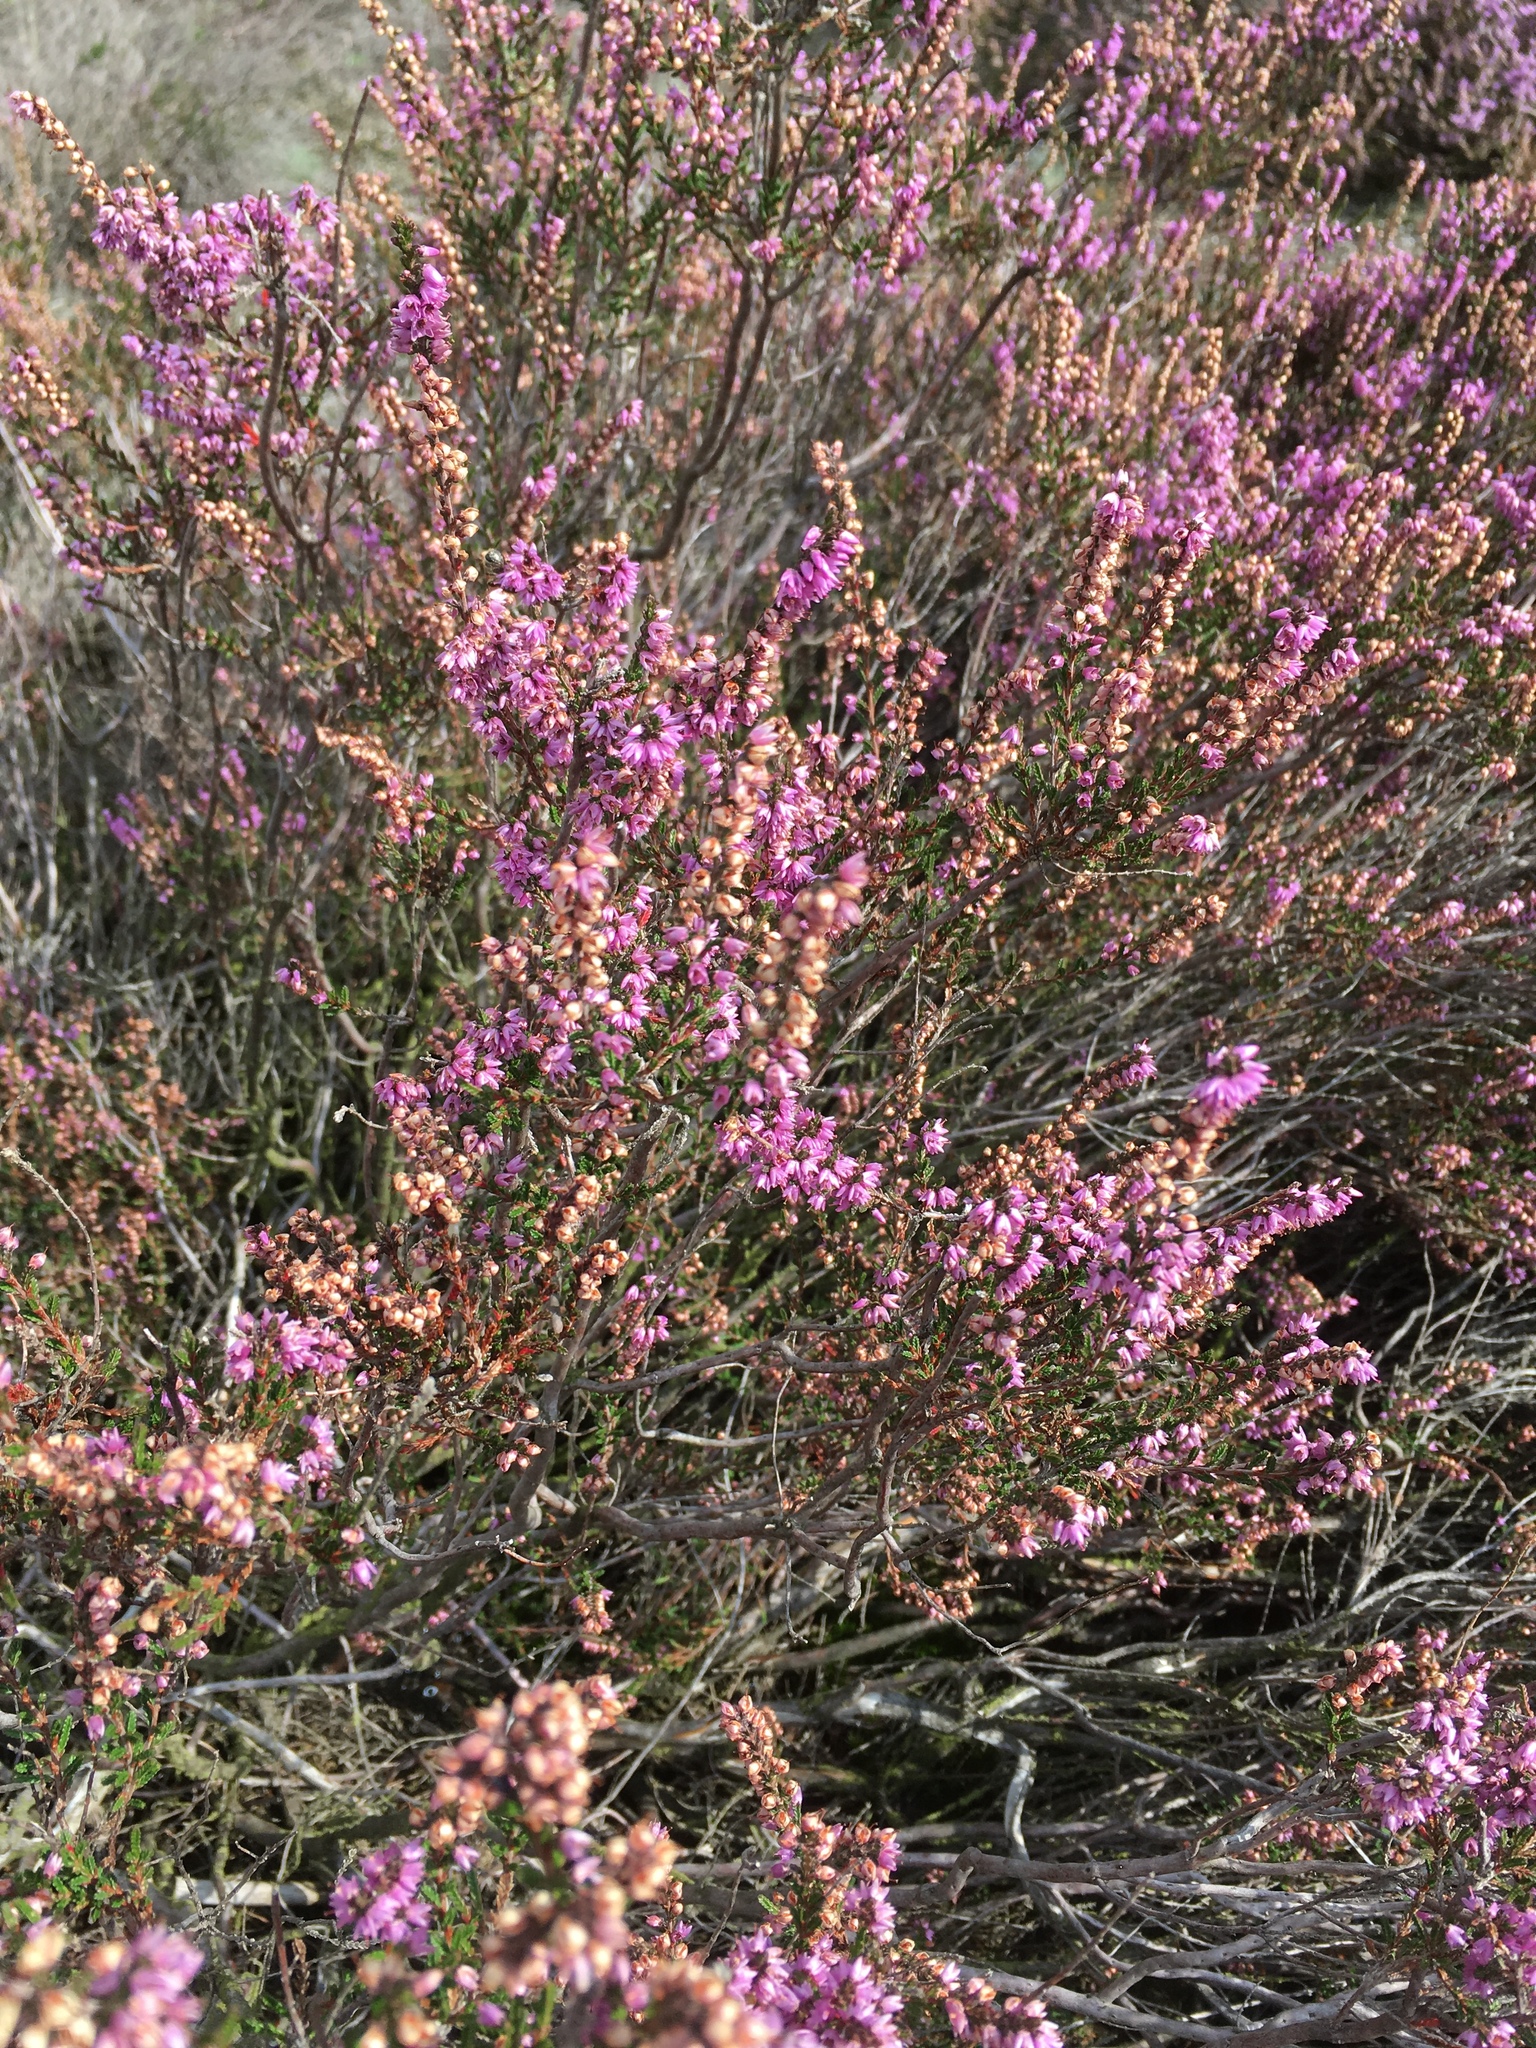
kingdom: Plantae
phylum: Tracheophyta
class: Magnoliopsida
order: Ericales
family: Ericaceae
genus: Calluna
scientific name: Calluna vulgaris
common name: Heather
